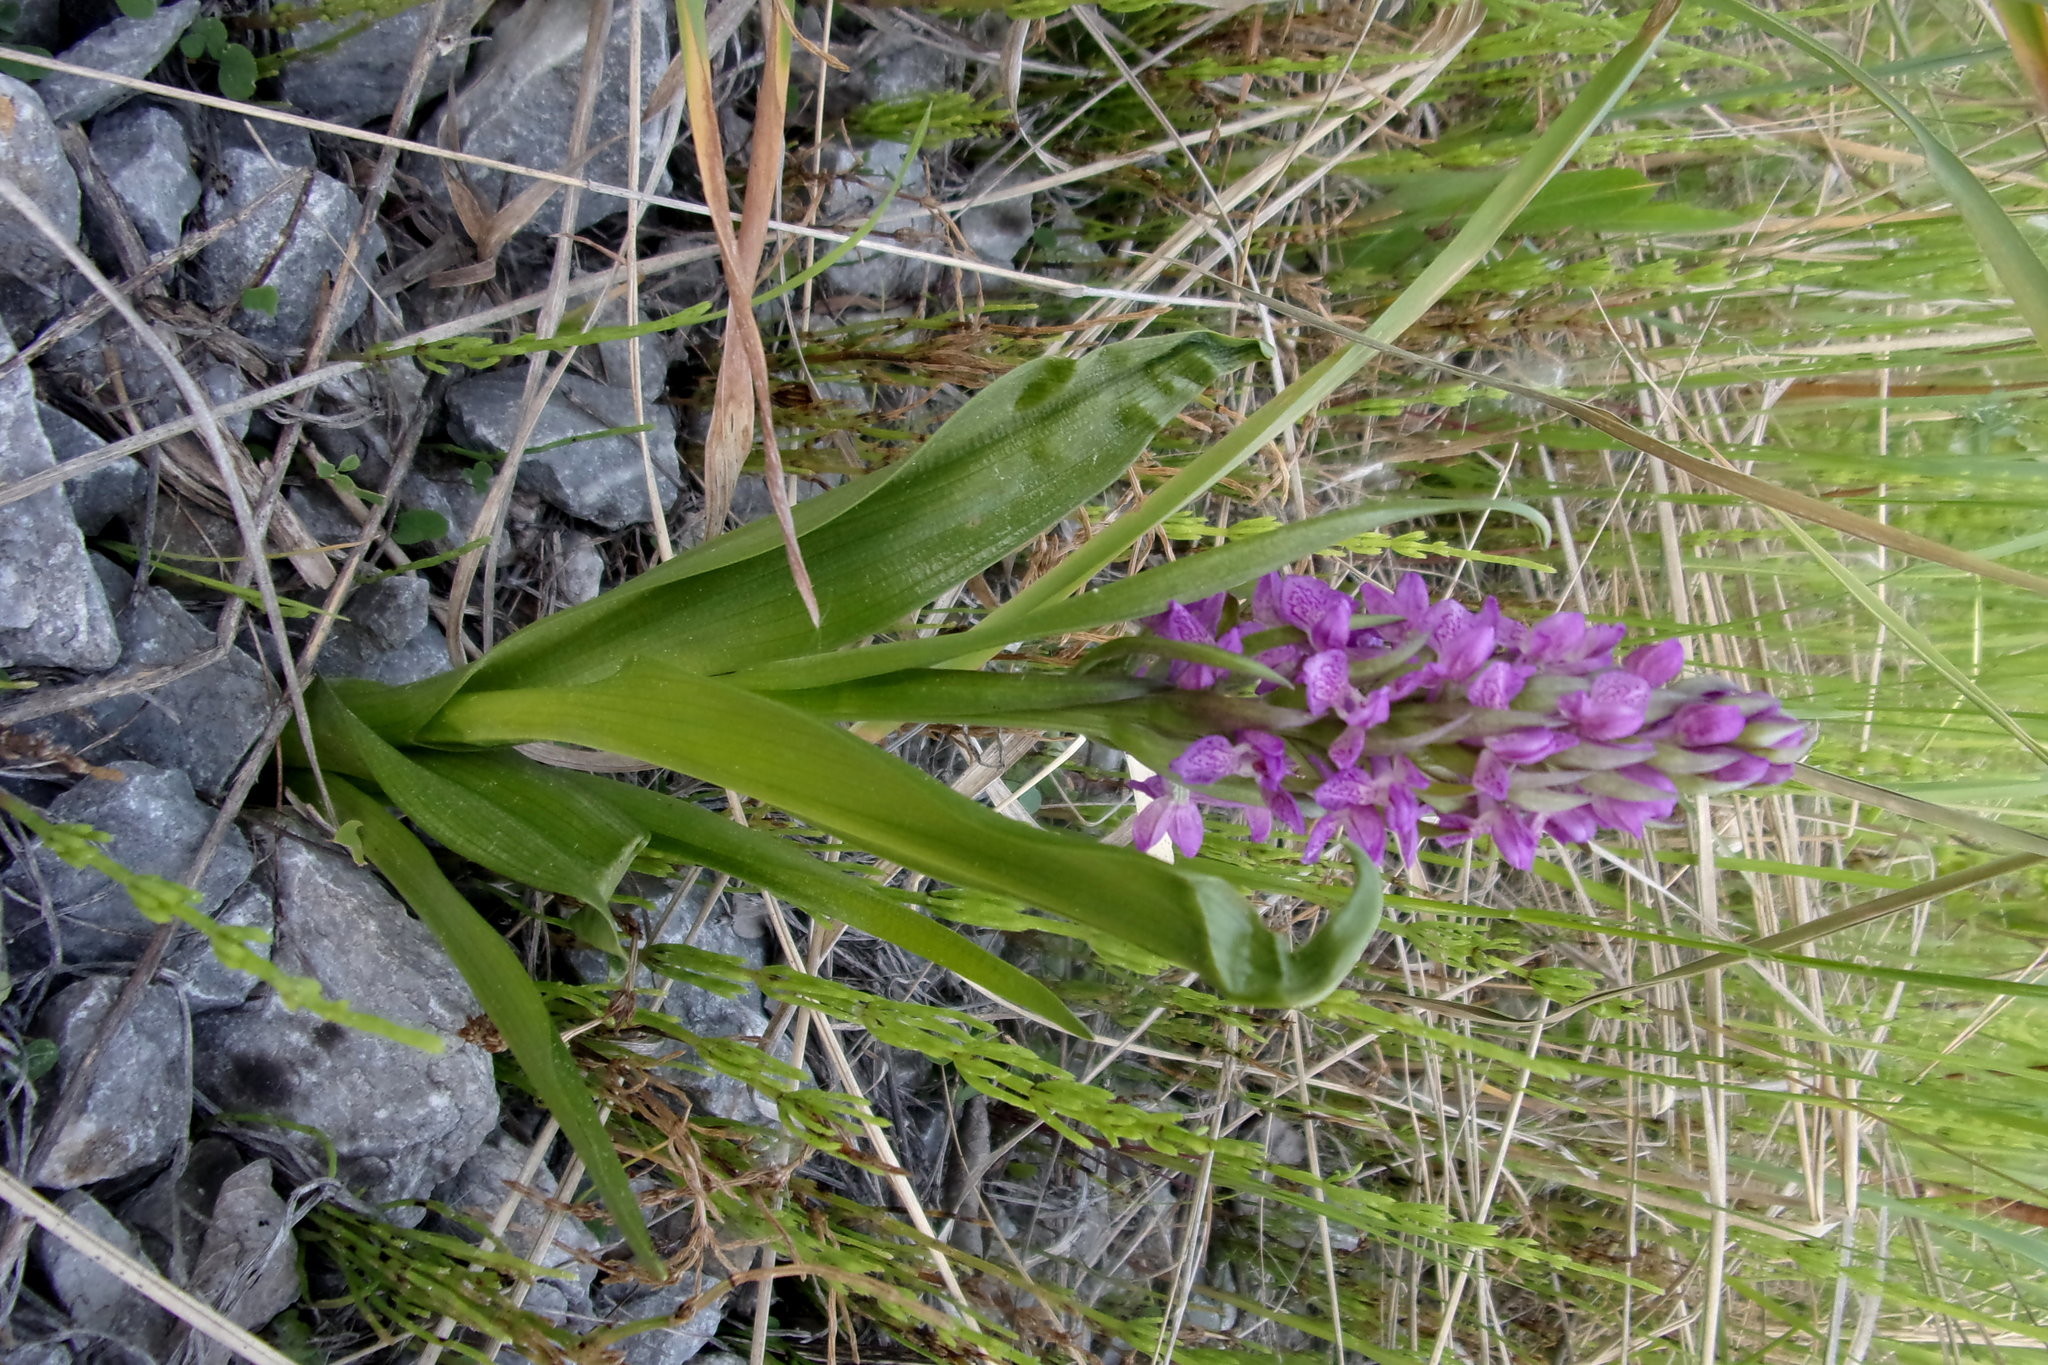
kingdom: Plantae
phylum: Tracheophyta
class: Liliopsida
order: Asparagales
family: Orchidaceae
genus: Dactylorhiza
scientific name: Dactylorhiza incarnata
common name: Early marsh-orchid
